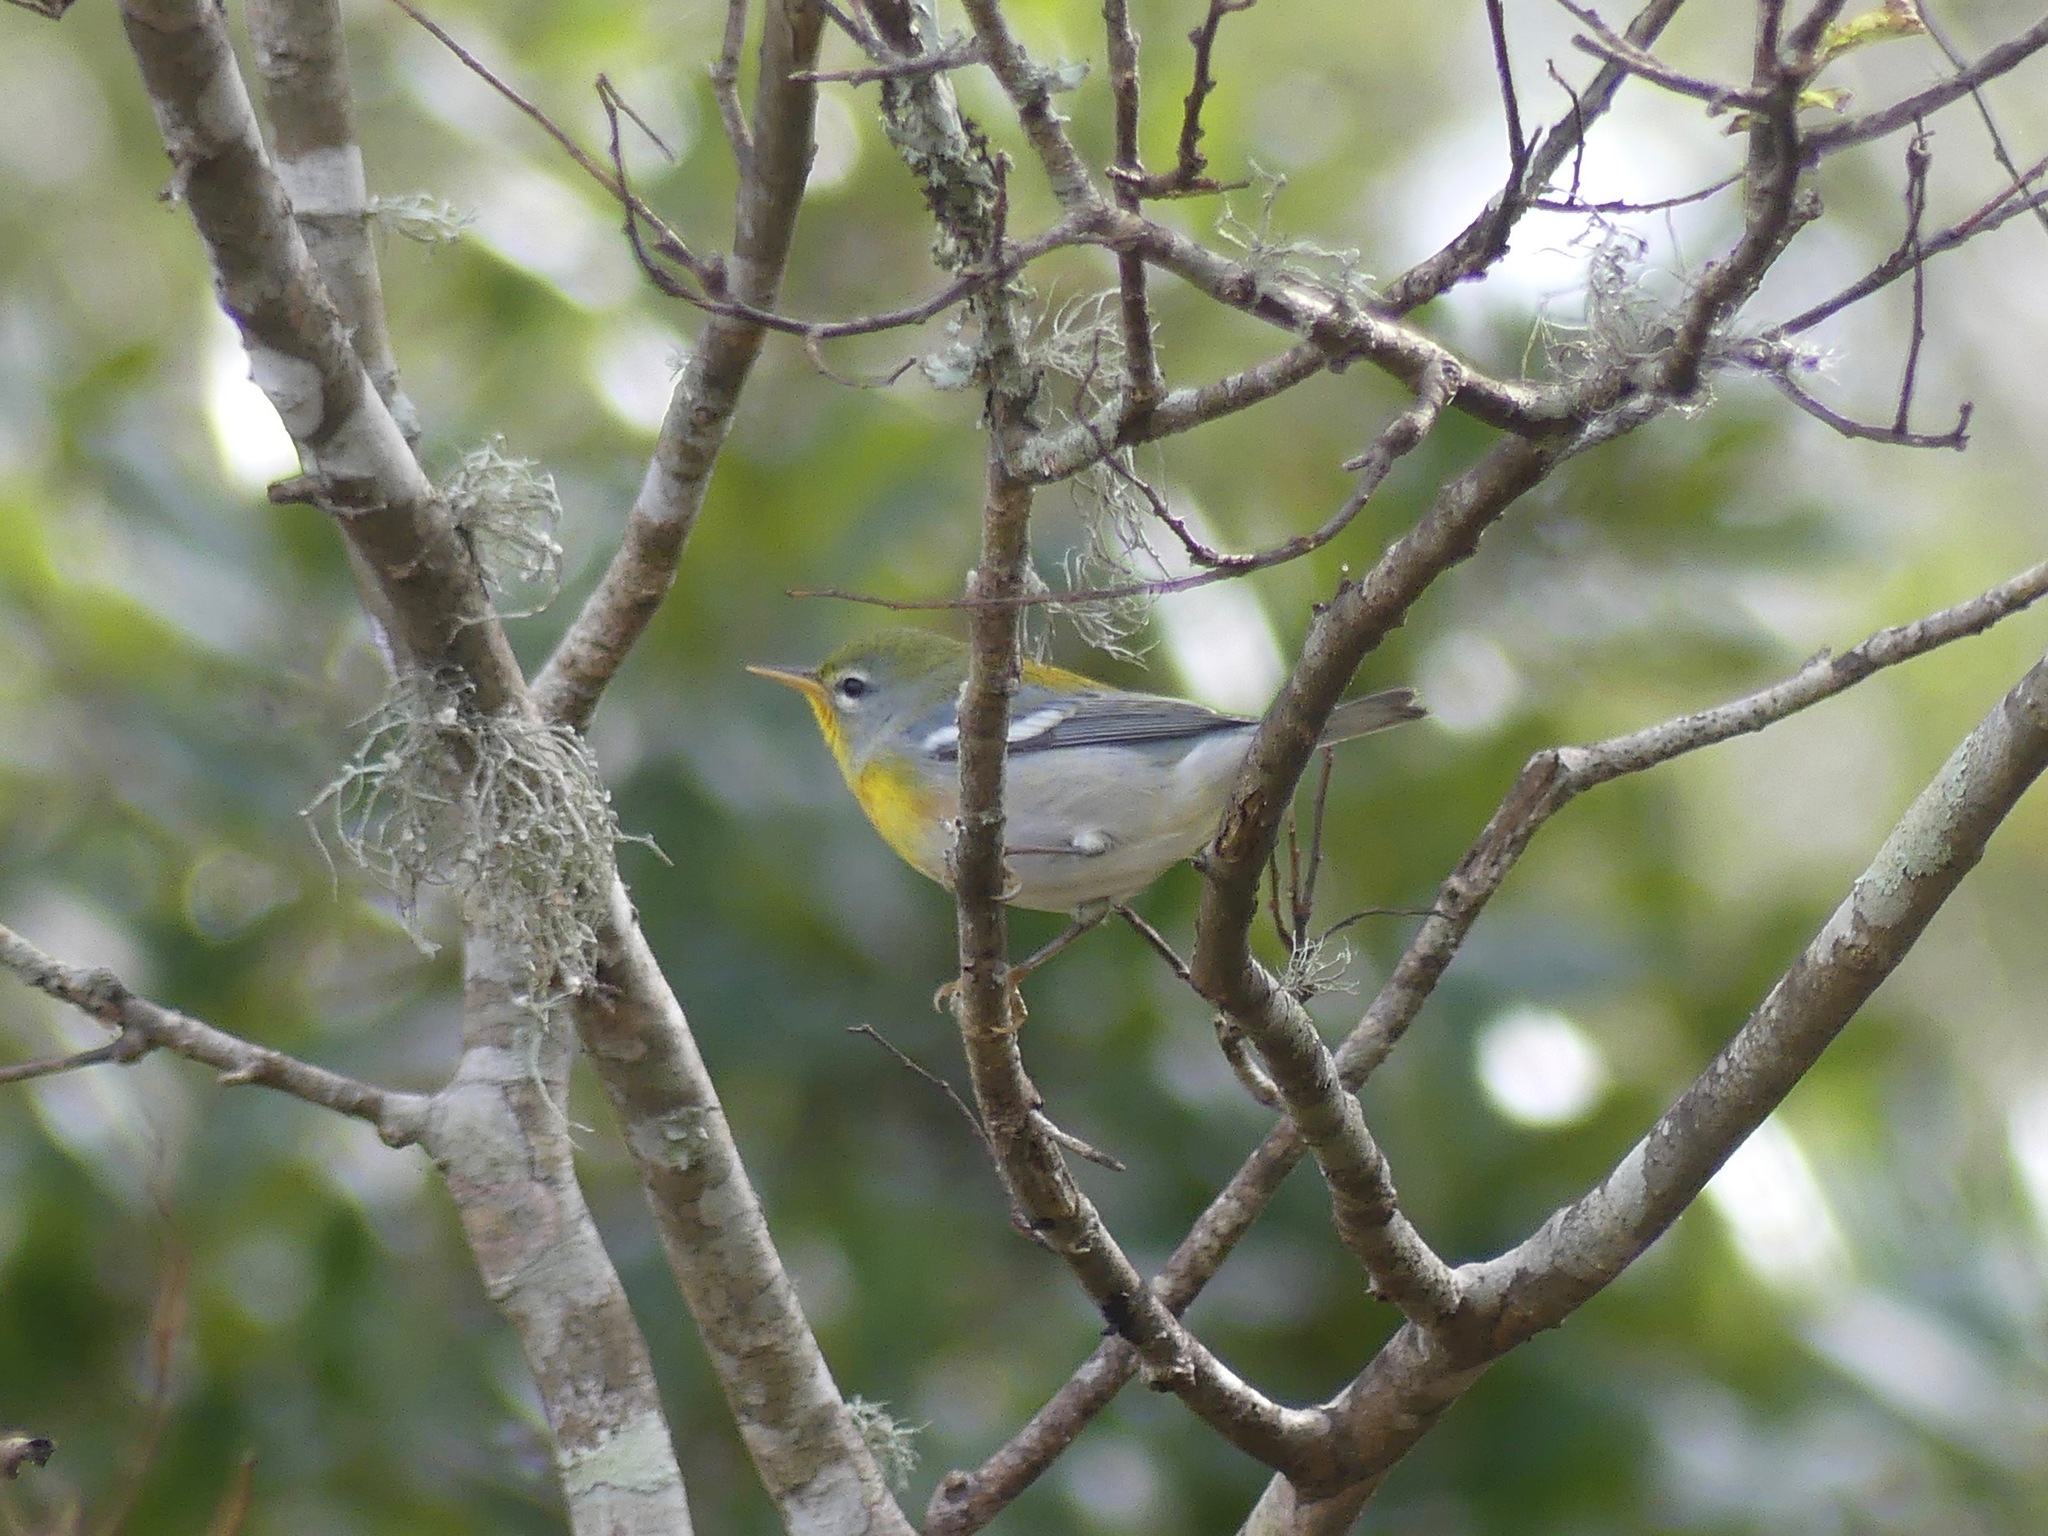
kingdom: Animalia
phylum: Chordata
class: Aves
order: Passeriformes
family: Parulidae
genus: Setophaga
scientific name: Setophaga americana
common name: Northern parula
